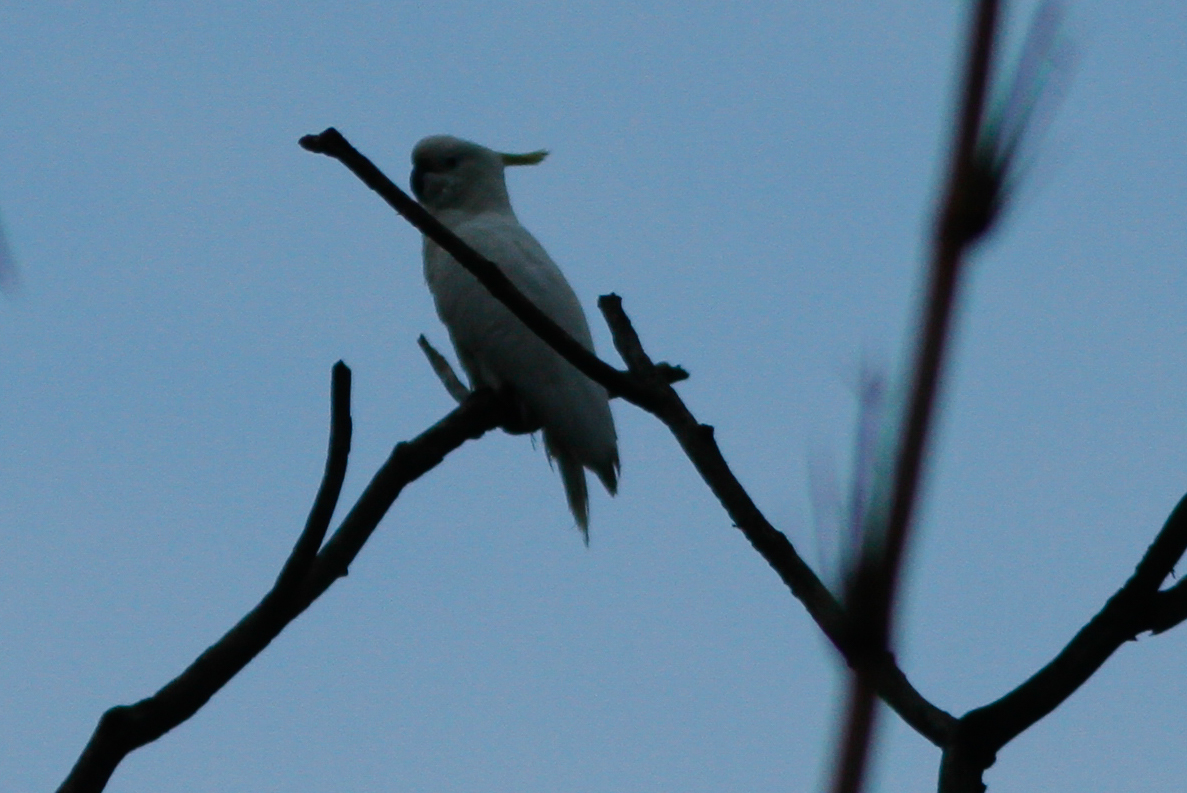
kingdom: Animalia
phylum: Chordata
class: Aves
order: Psittaciformes
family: Psittacidae
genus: Cacatua
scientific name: Cacatua galerita
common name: Sulphur-crested cockatoo
